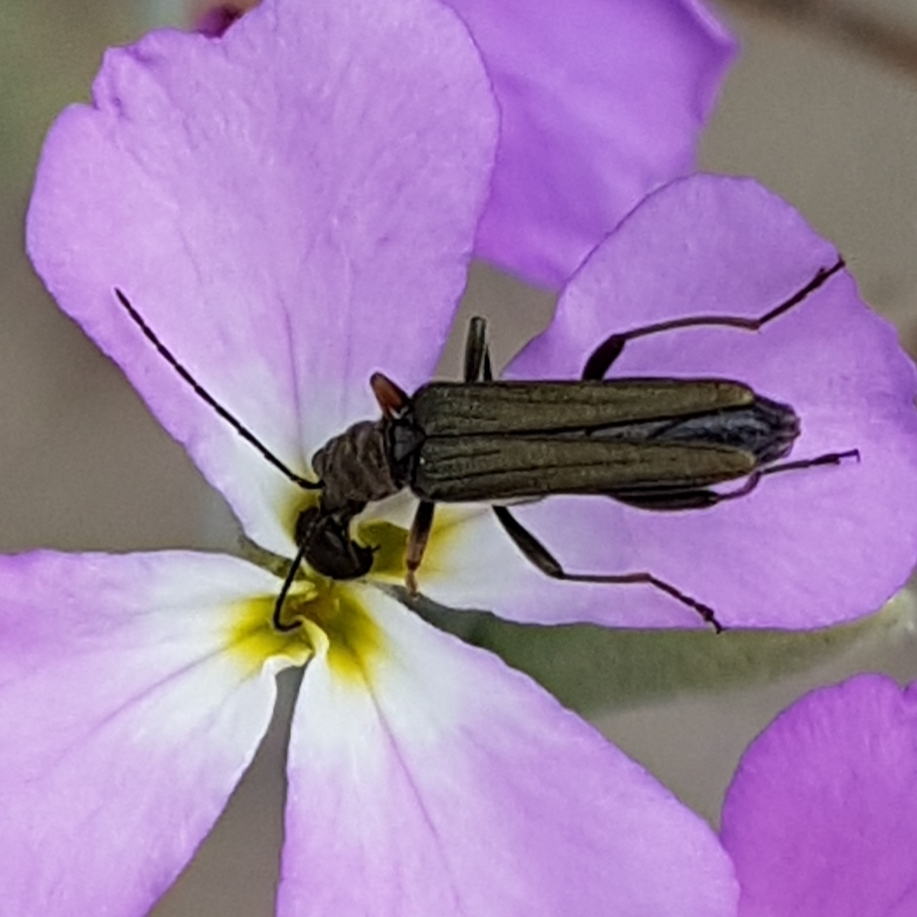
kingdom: Animalia
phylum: Arthropoda
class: Insecta
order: Coleoptera
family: Oedemeridae
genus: Oedemera
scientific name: Oedemera flavipes
